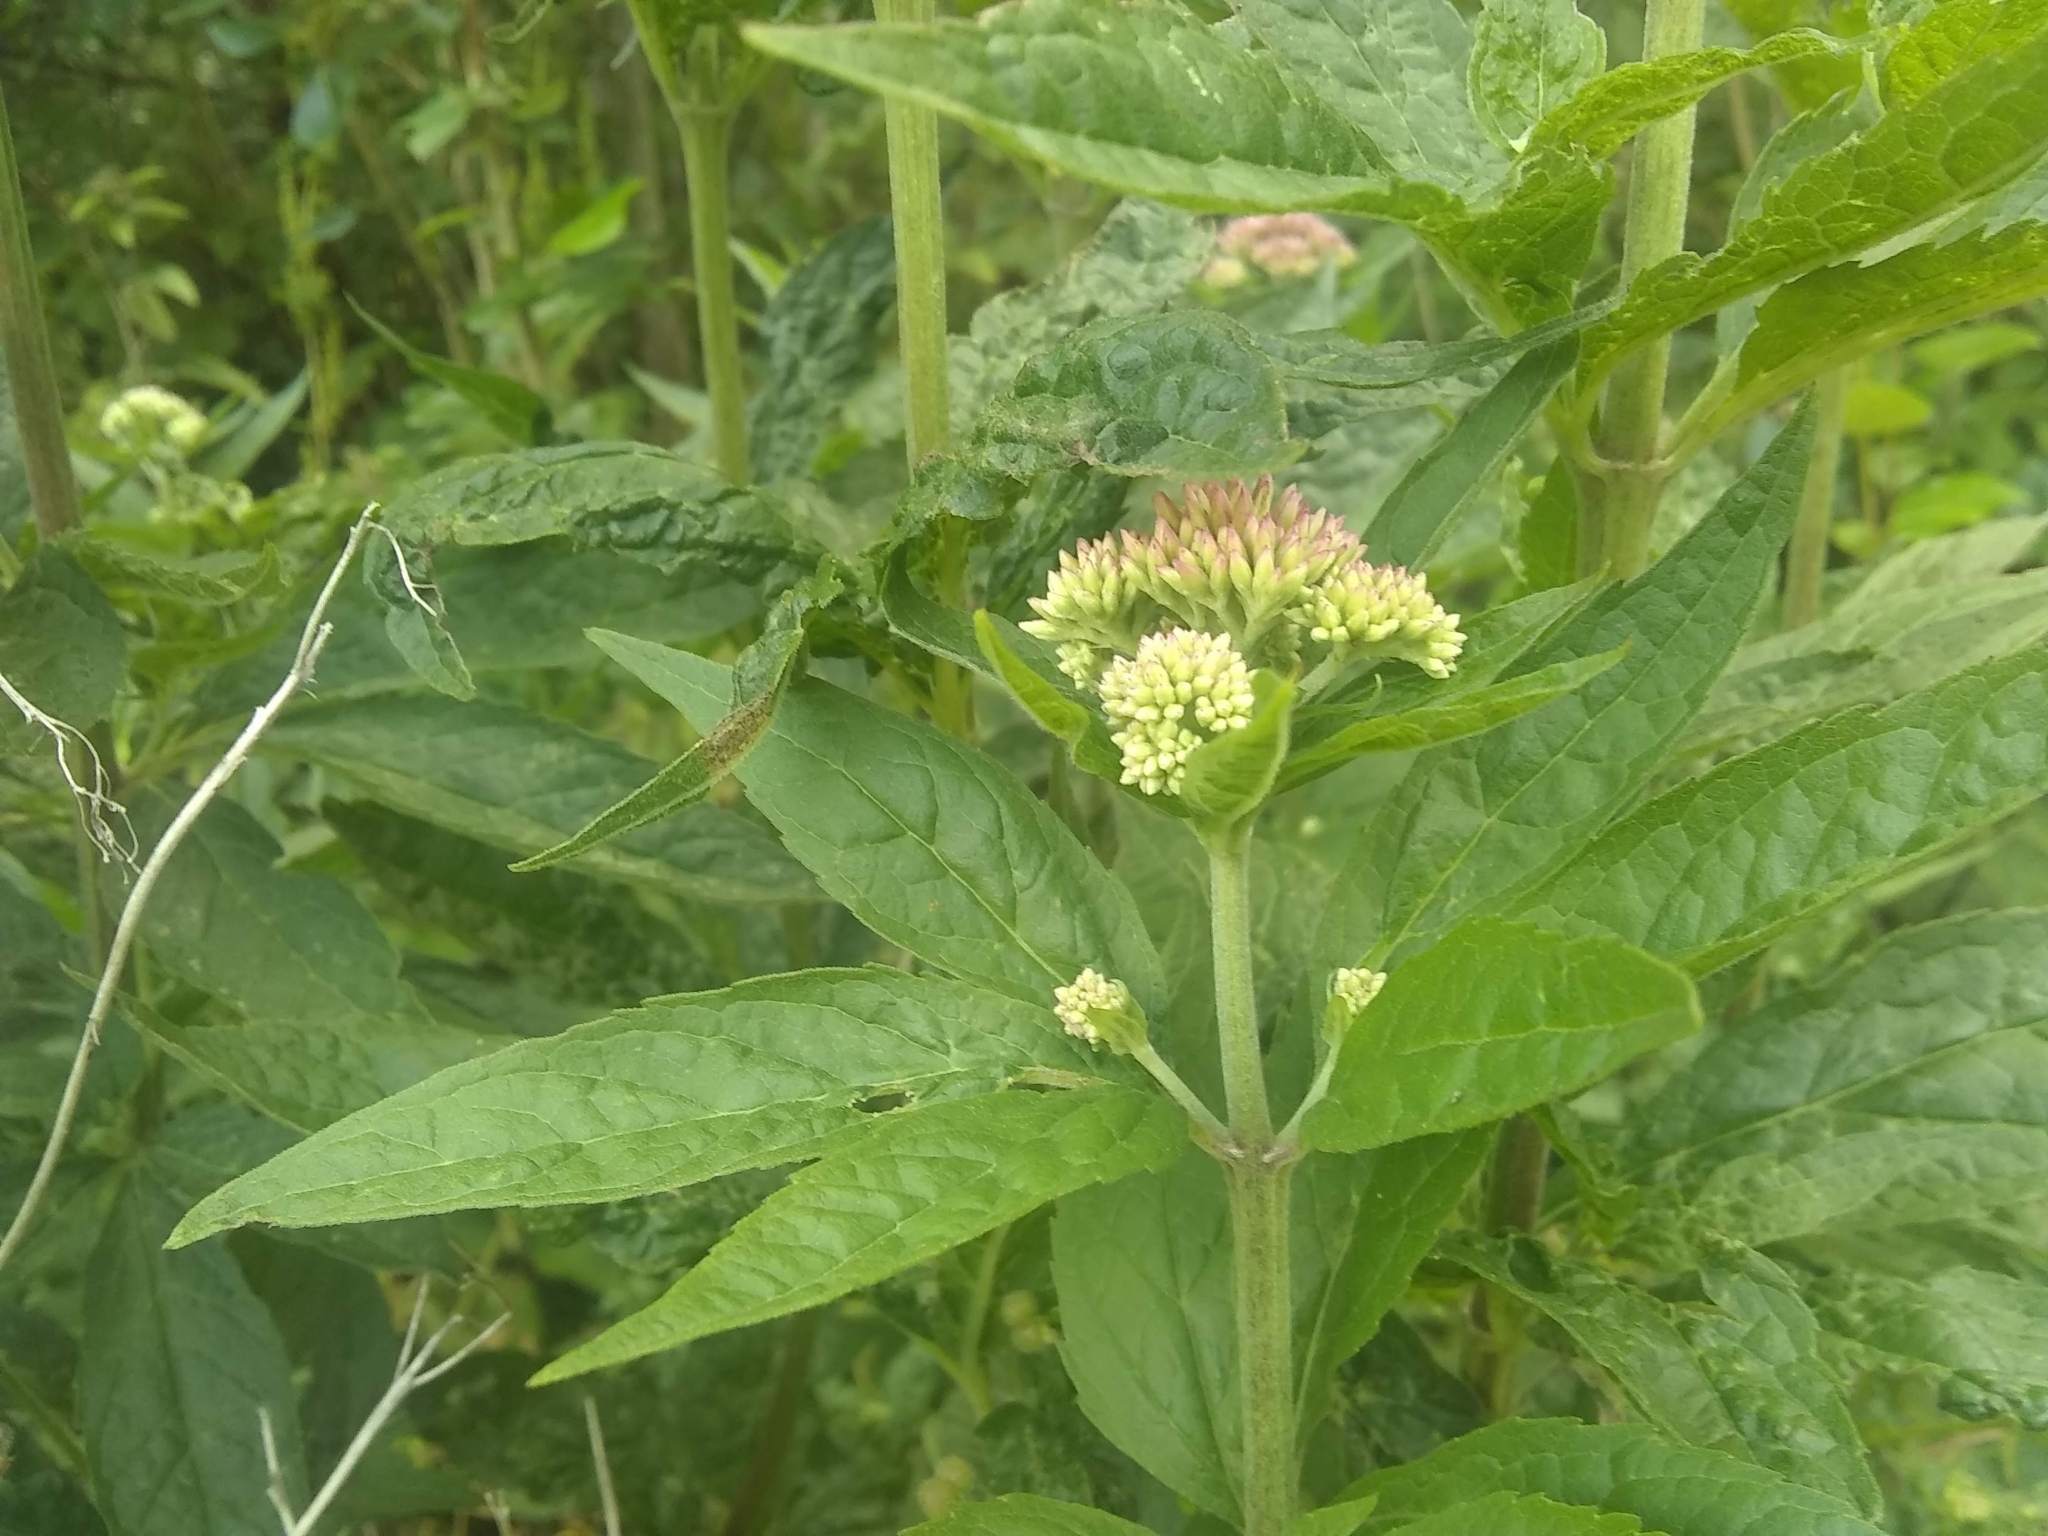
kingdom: Plantae
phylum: Tracheophyta
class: Magnoliopsida
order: Asterales
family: Asteraceae
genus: Eupatorium
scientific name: Eupatorium cannabinum
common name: Hemp-agrimony
